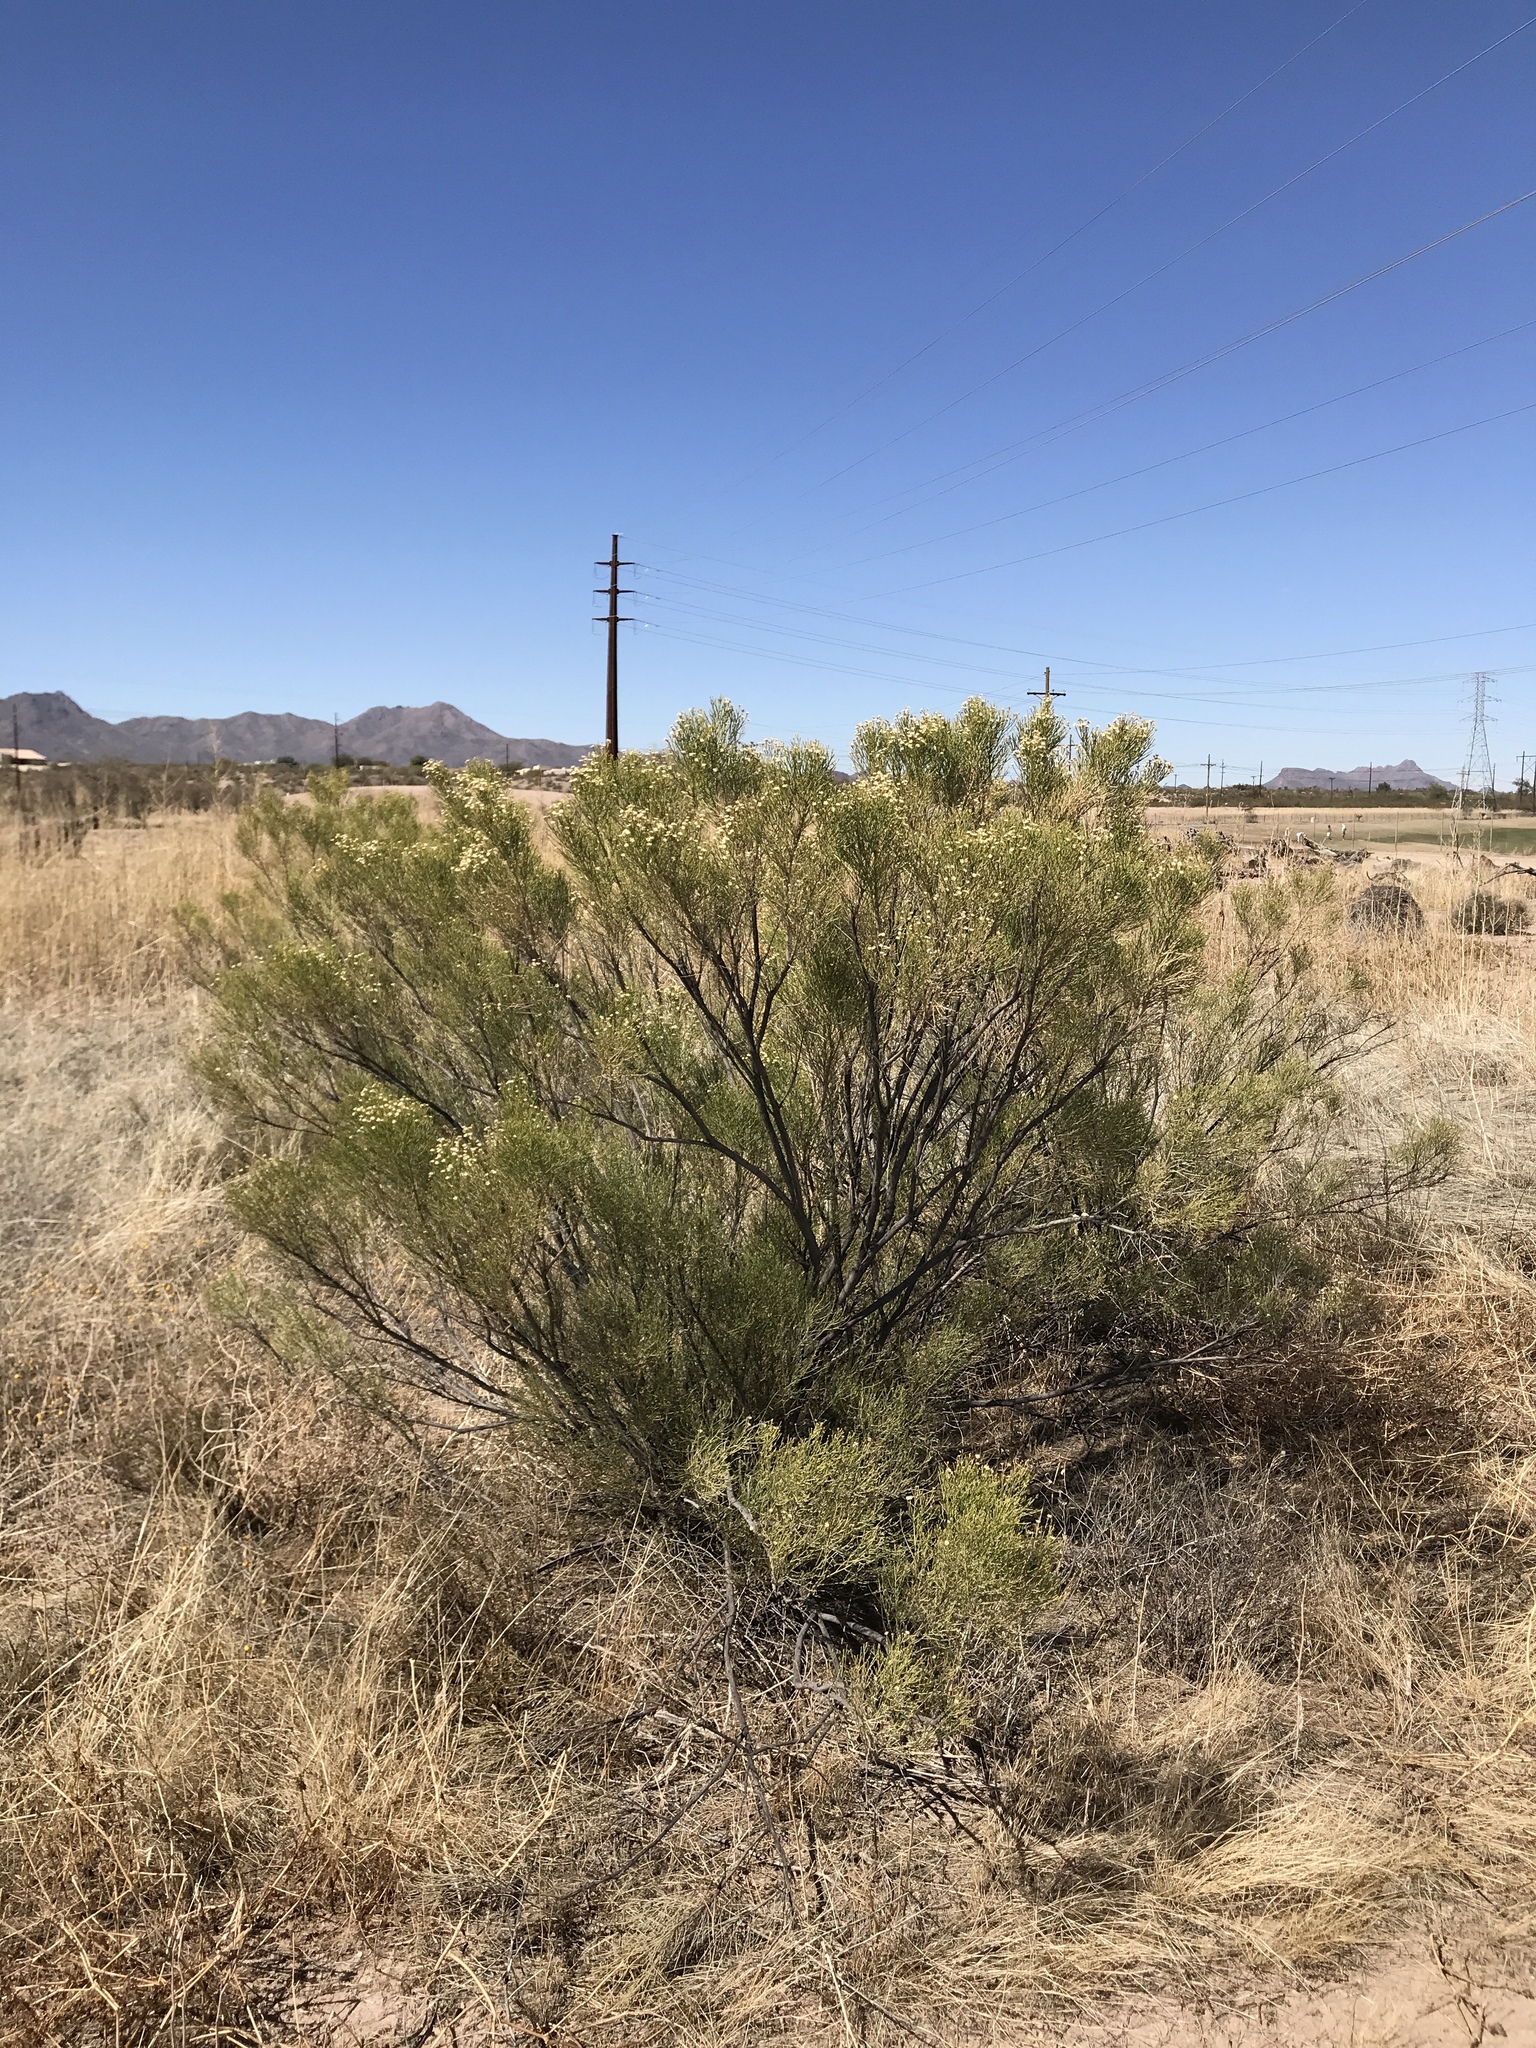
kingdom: Plantae
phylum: Tracheophyta
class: Magnoliopsida
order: Asterales
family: Asteraceae
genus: Baccharis
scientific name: Baccharis sarothroides
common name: Desert-broom
